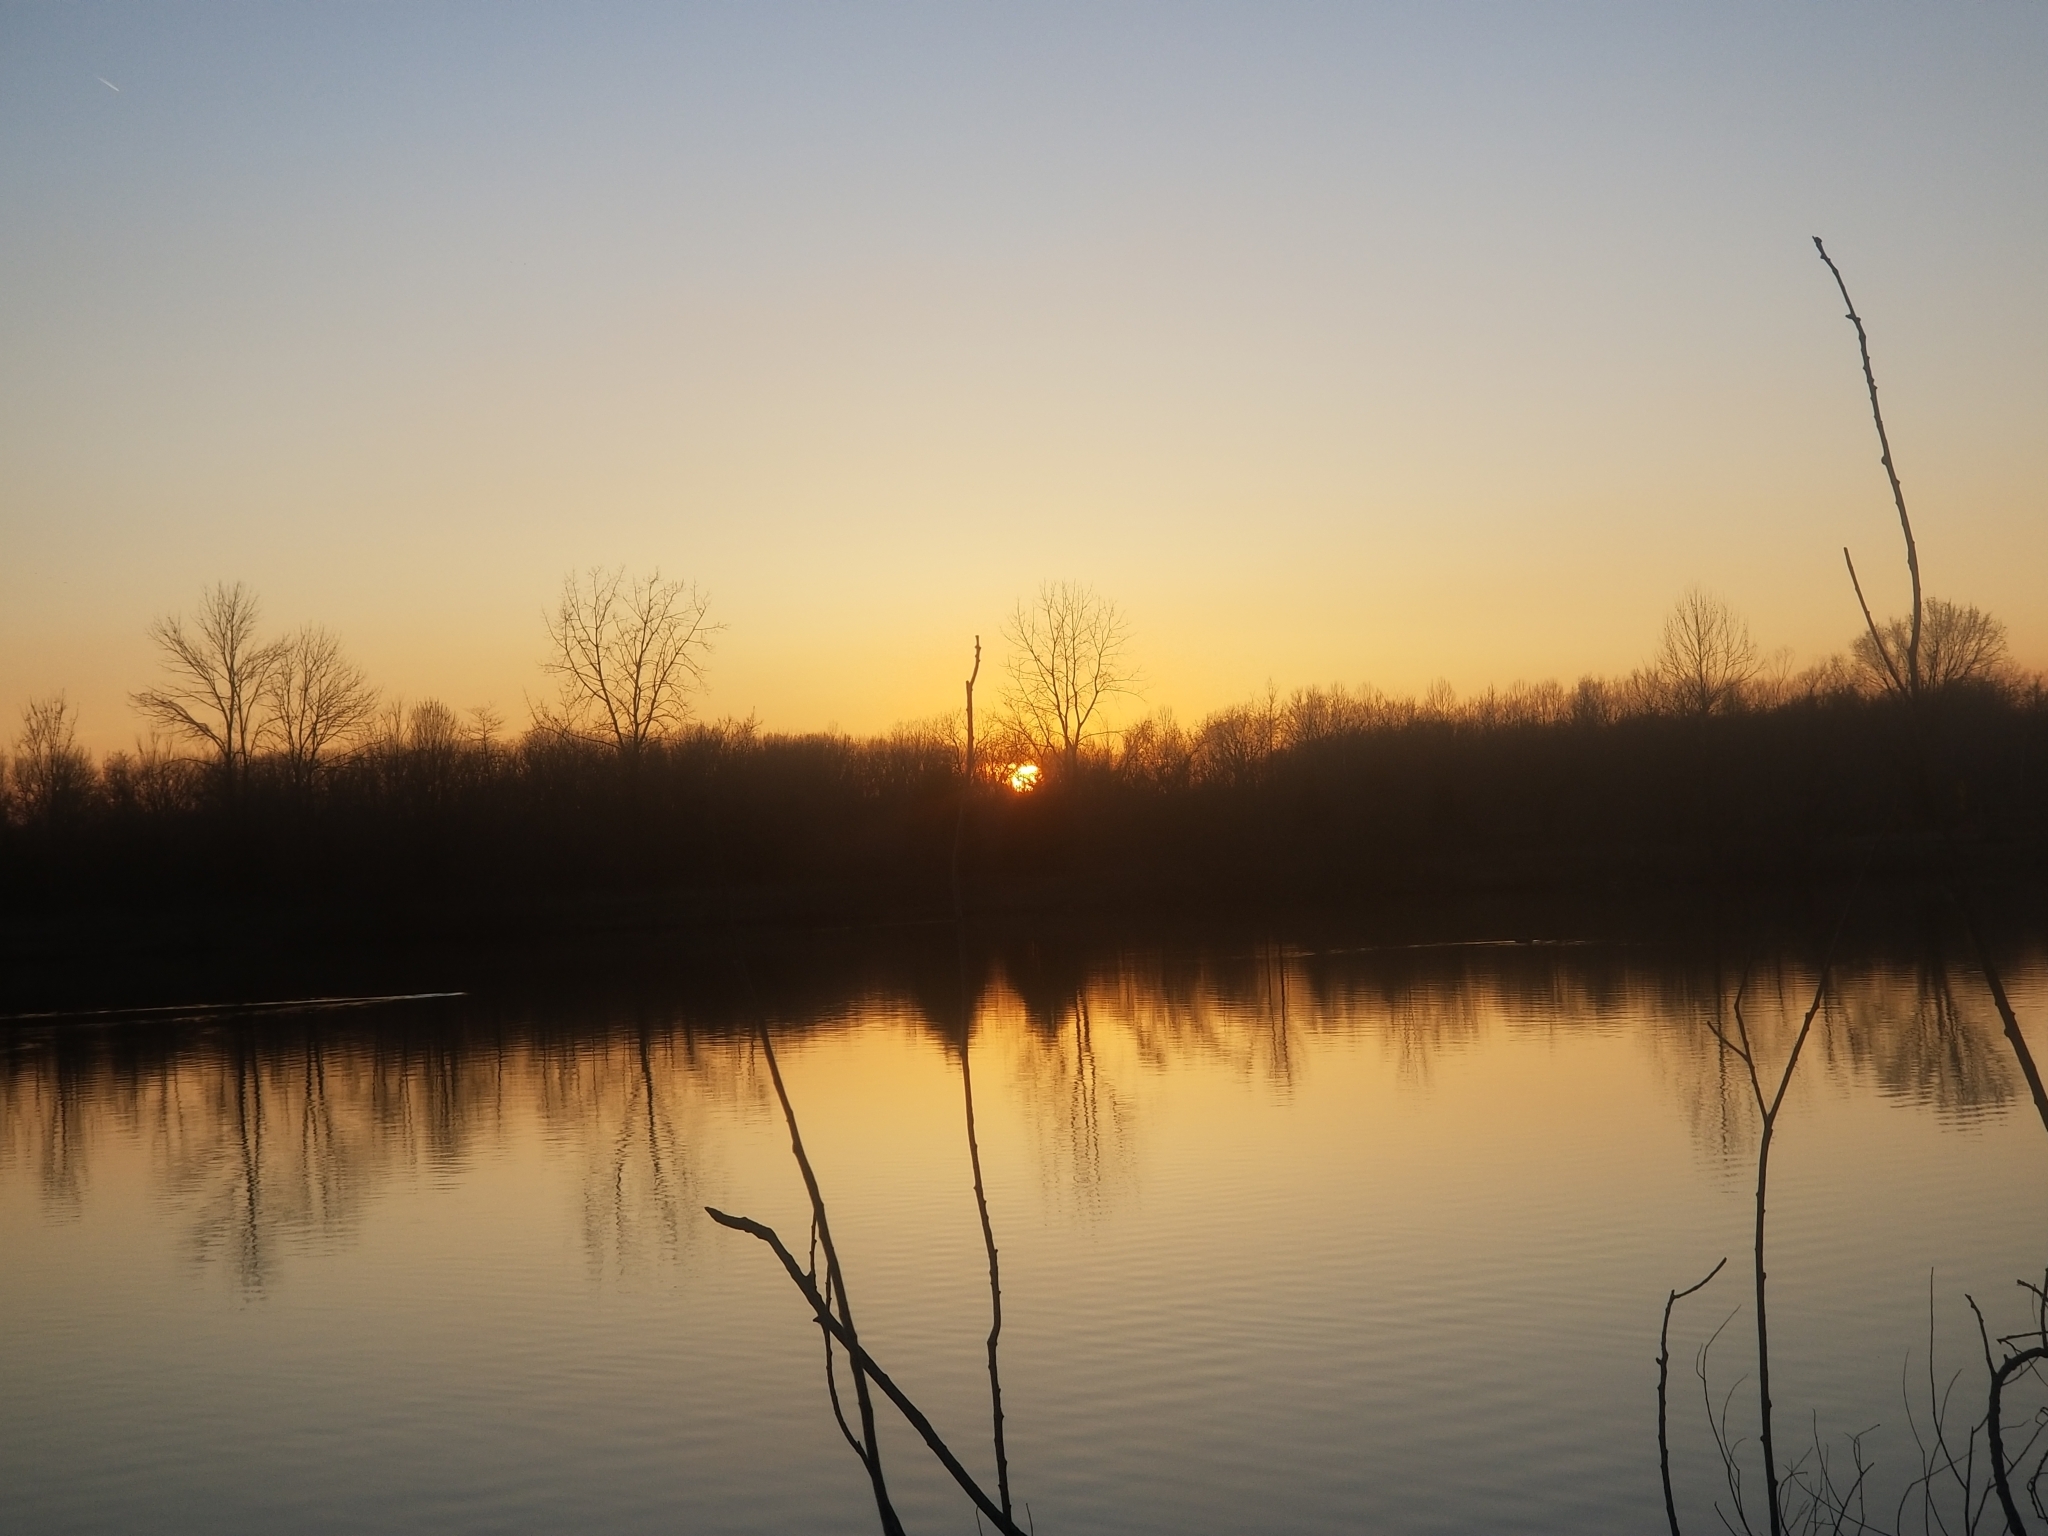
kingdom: Animalia
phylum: Chordata
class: Aves
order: Gaviiformes
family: Gaviidae
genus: Gavia
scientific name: Gavia immer
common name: Common loon
